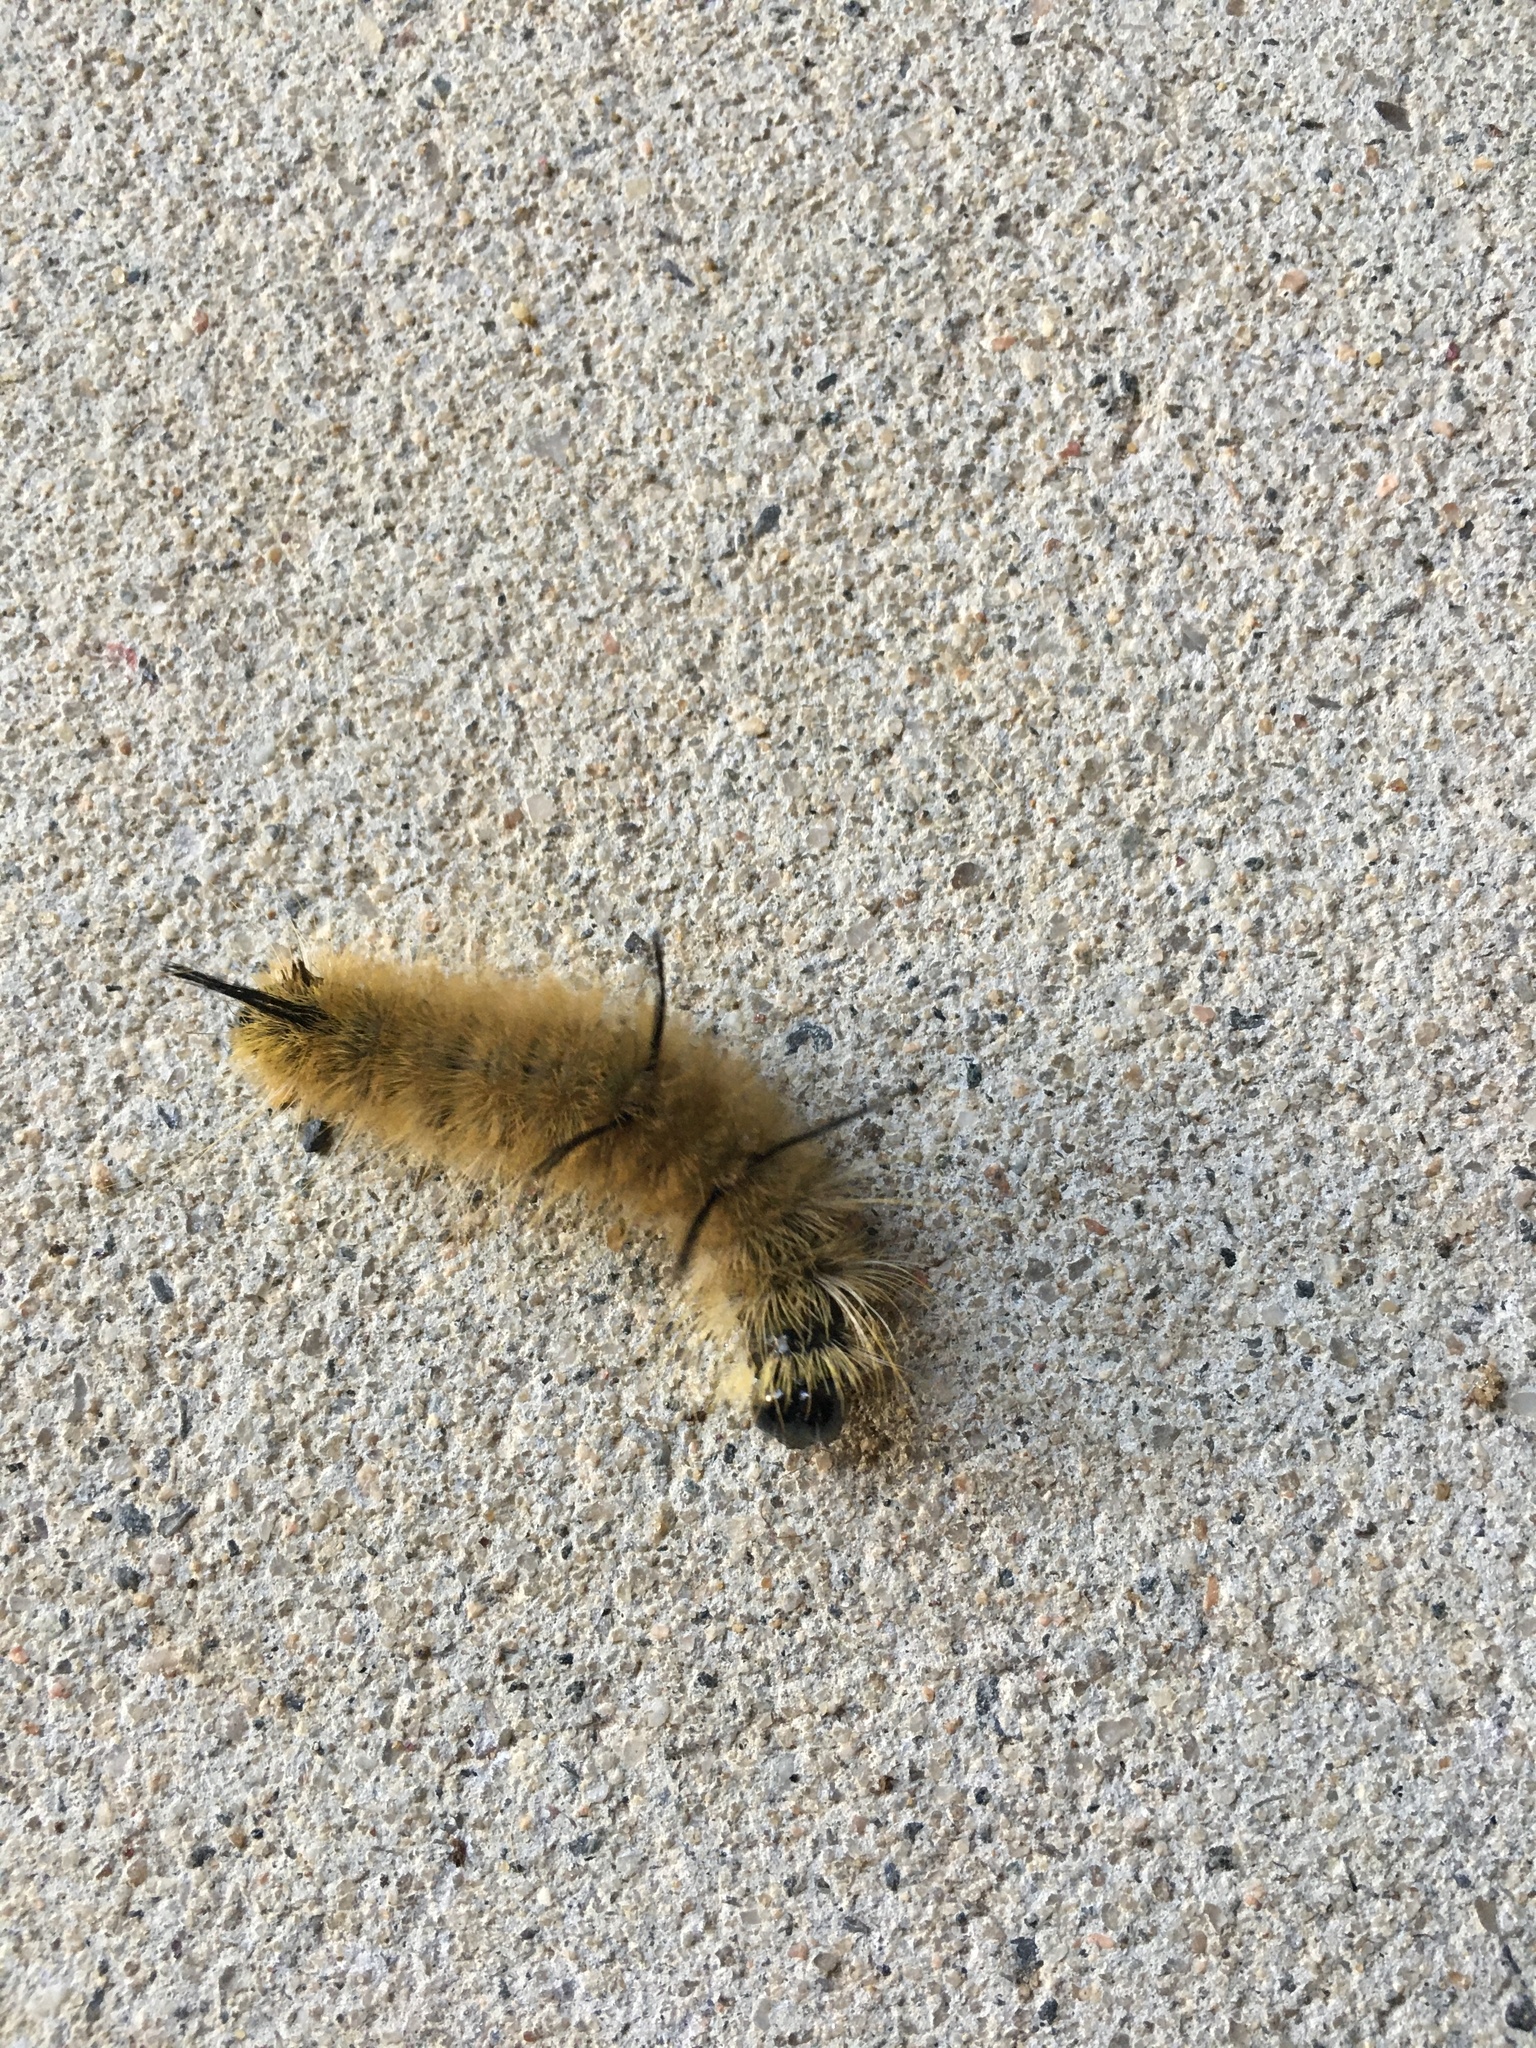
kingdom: Animalia
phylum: Arthropoda
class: Insecta
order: Lepidoptera
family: Noctuidae
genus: Acronicta
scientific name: Acronicta americana
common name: American dagger
